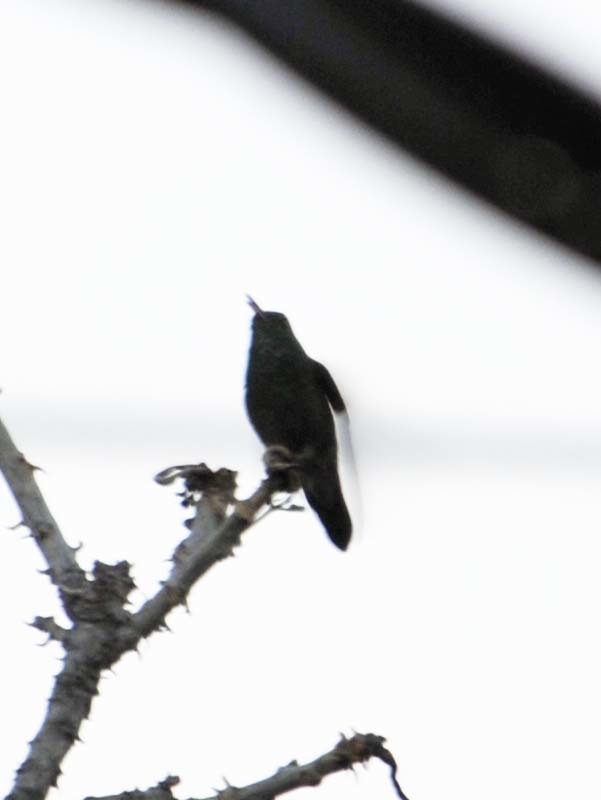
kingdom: Animalia
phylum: Chordata
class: Aves
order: Apodiformes
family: Trochilidae
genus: Saucerottia
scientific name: Saucerottia beryllina
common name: Berylline hummingbird
